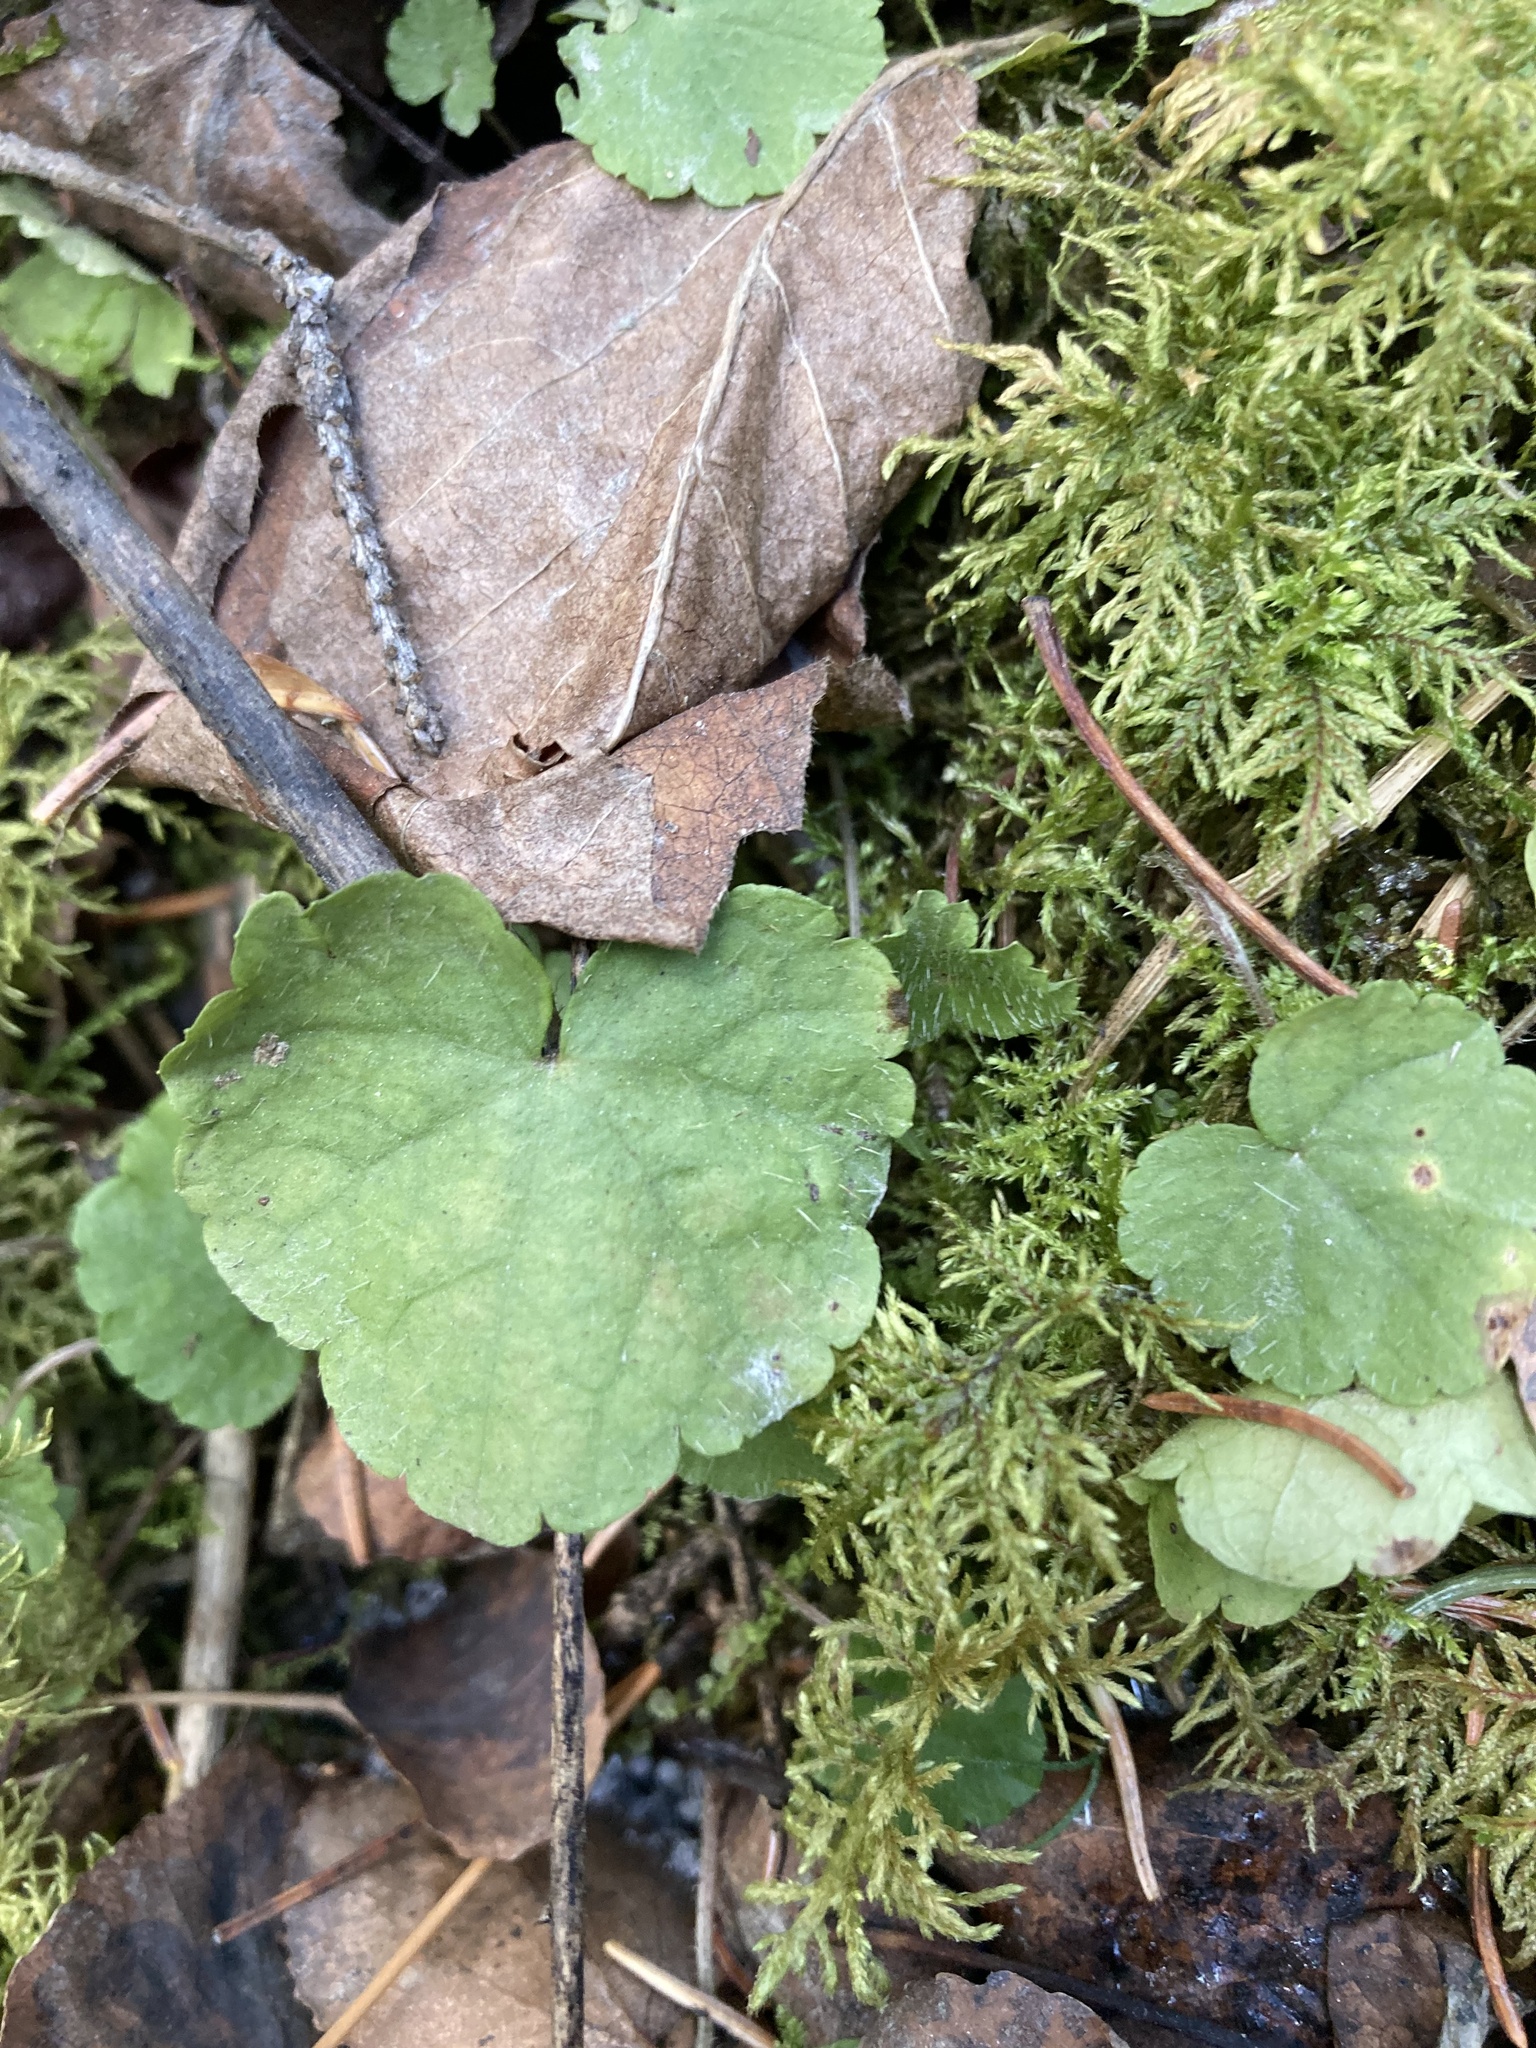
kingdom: Plantae
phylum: Tracheophyta
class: Magnoliopsida
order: Saxifragales
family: Saxifragaceae
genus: Mitella
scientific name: Mitella nuda
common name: Bare-stemmed bishop's-cap
